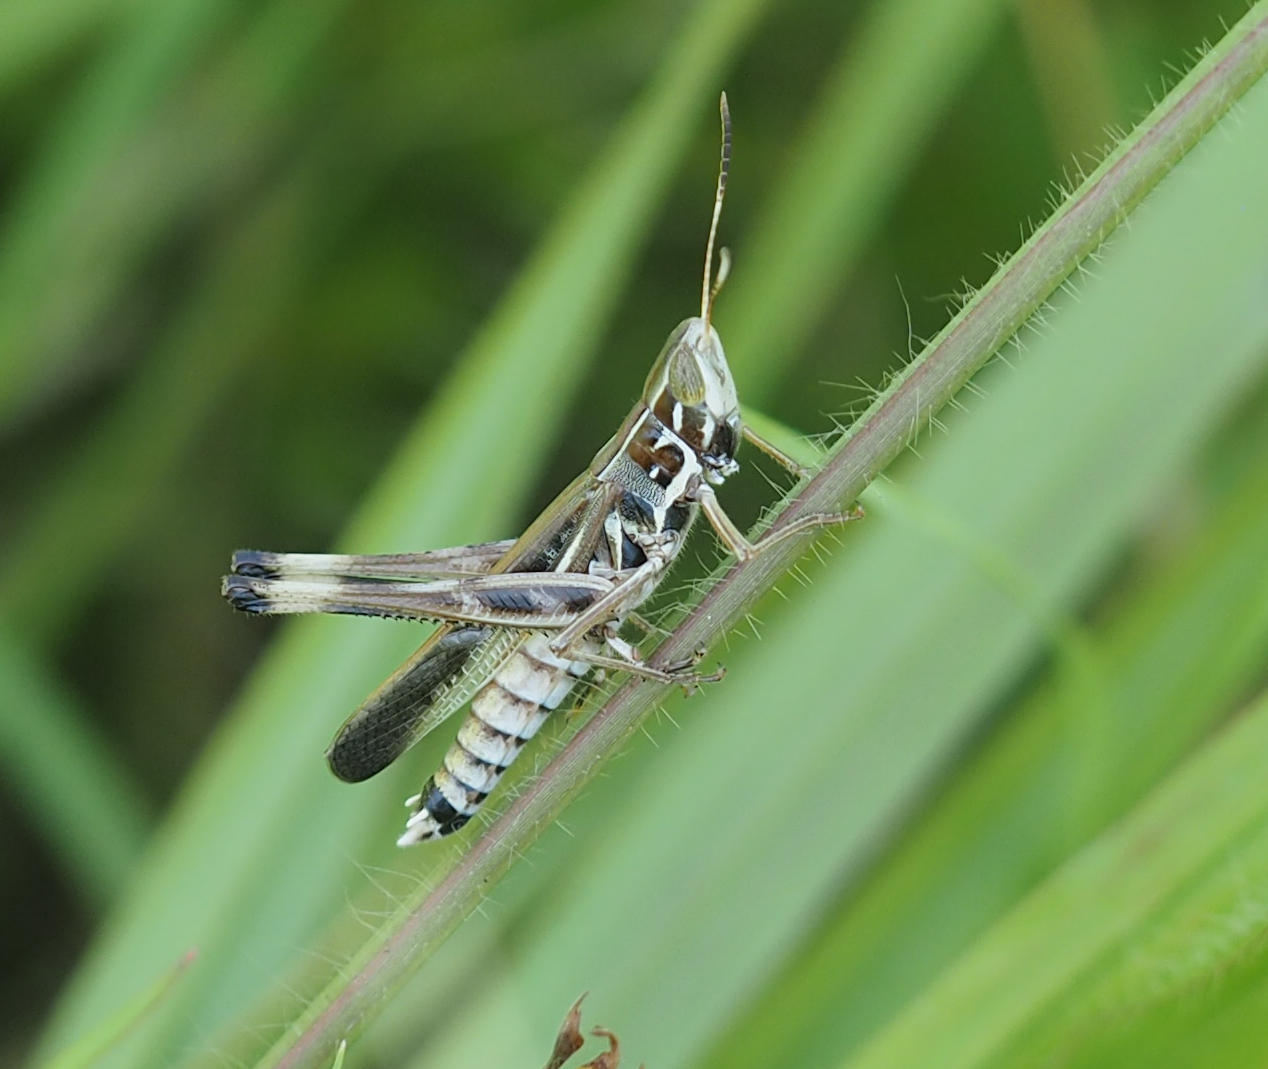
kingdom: Animalia
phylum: Arthropoda
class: Insecta
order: Orthoptera
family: Acrididae
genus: Syrbula
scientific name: Syrbula admirabilis
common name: Handsome grasshopper
